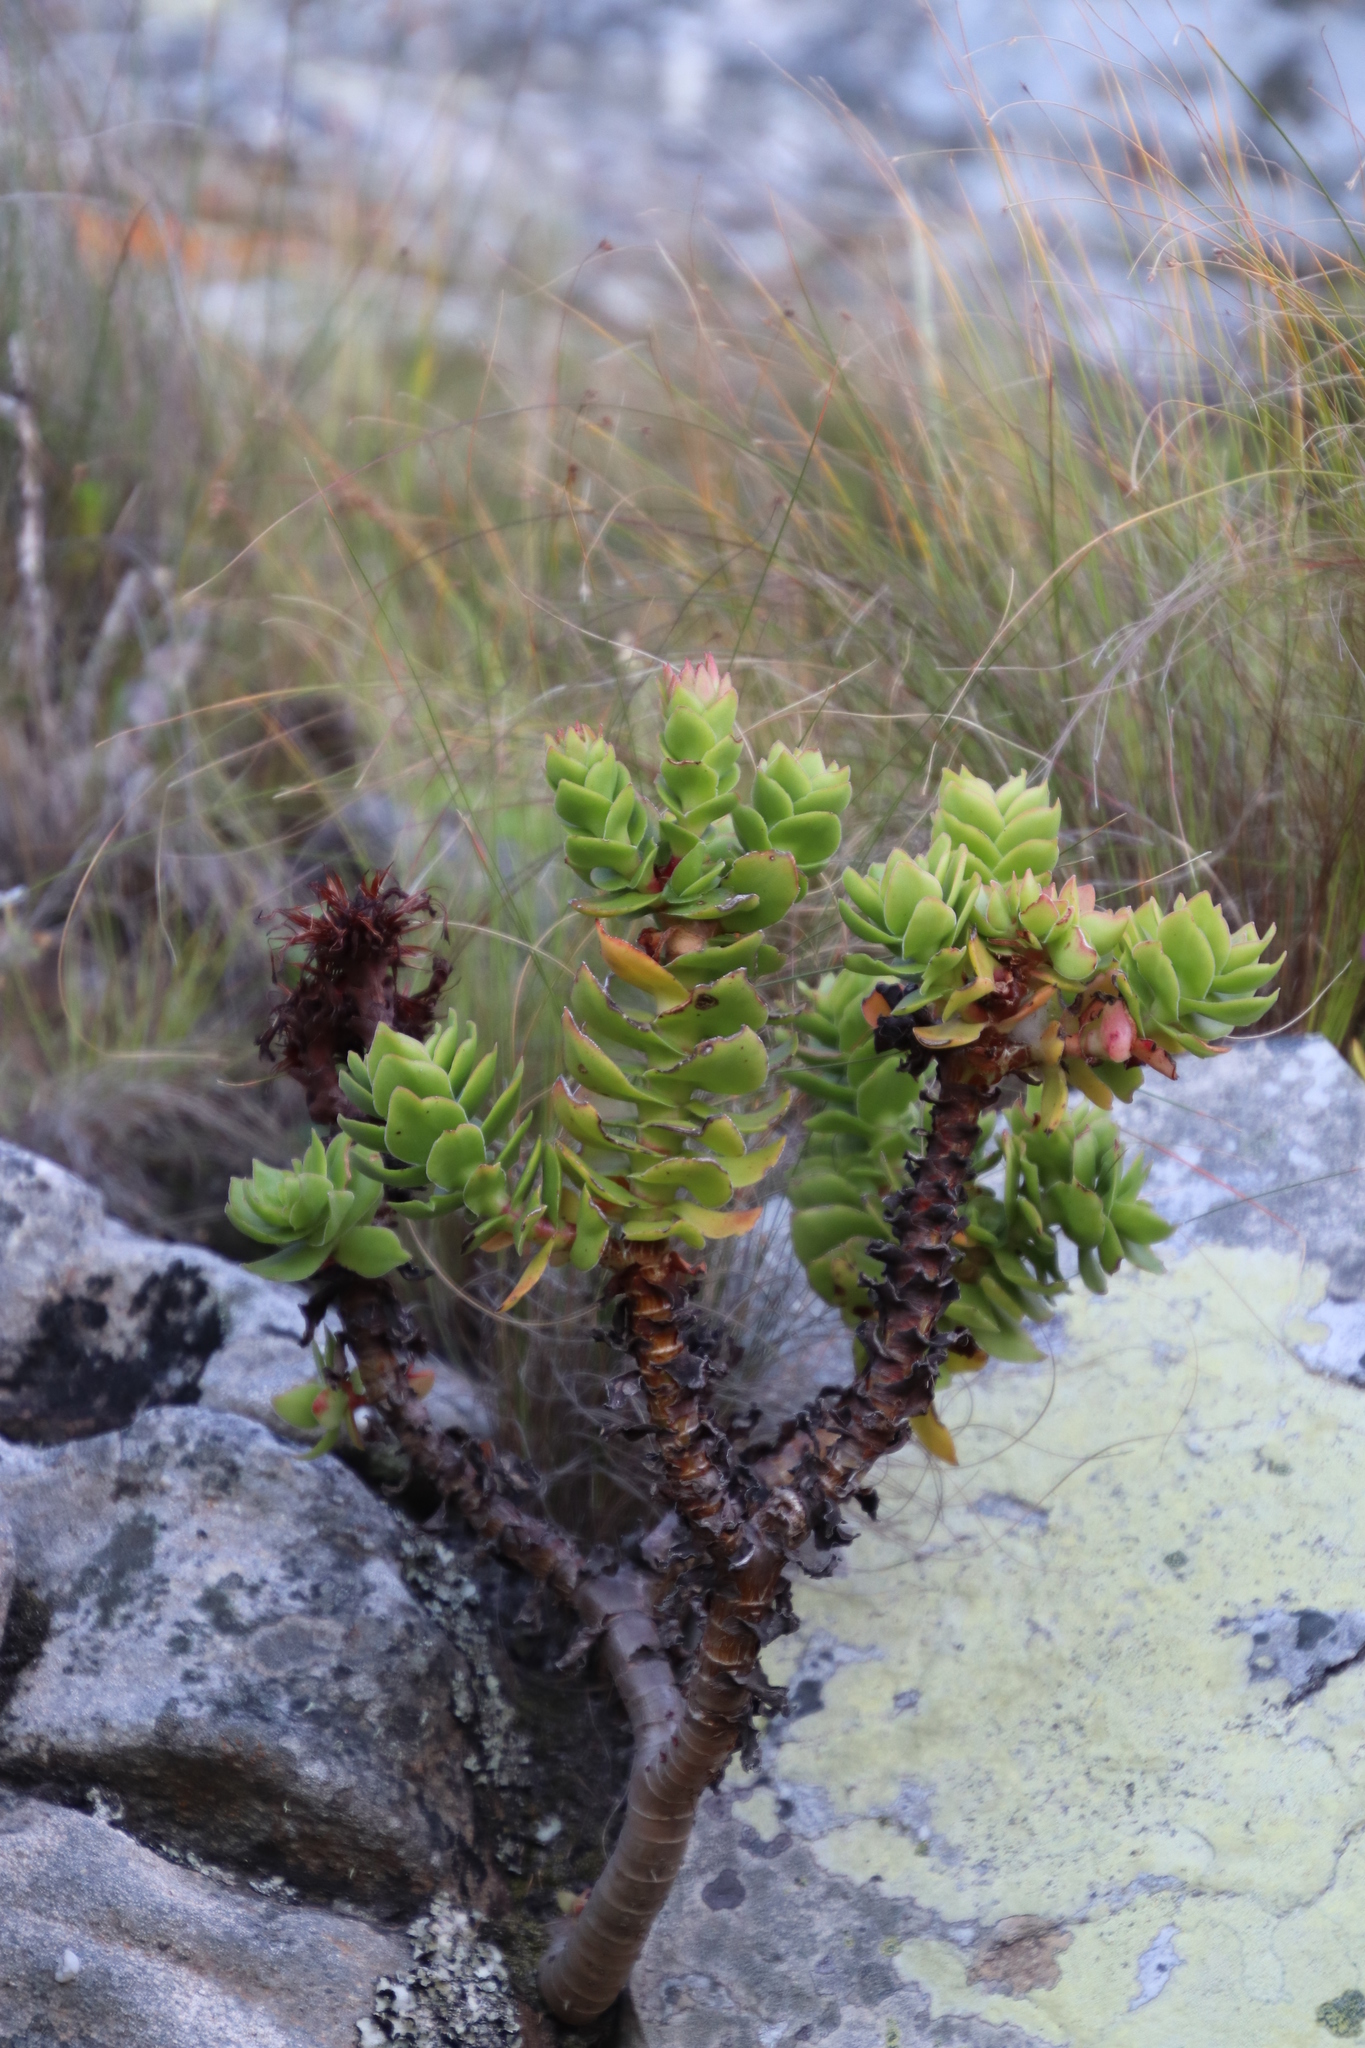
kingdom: Plantae
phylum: Tracheophyta
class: Magnoliopsida
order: Saxifragales
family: Crassulaceae
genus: Crassula
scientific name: Crassula coccinea
